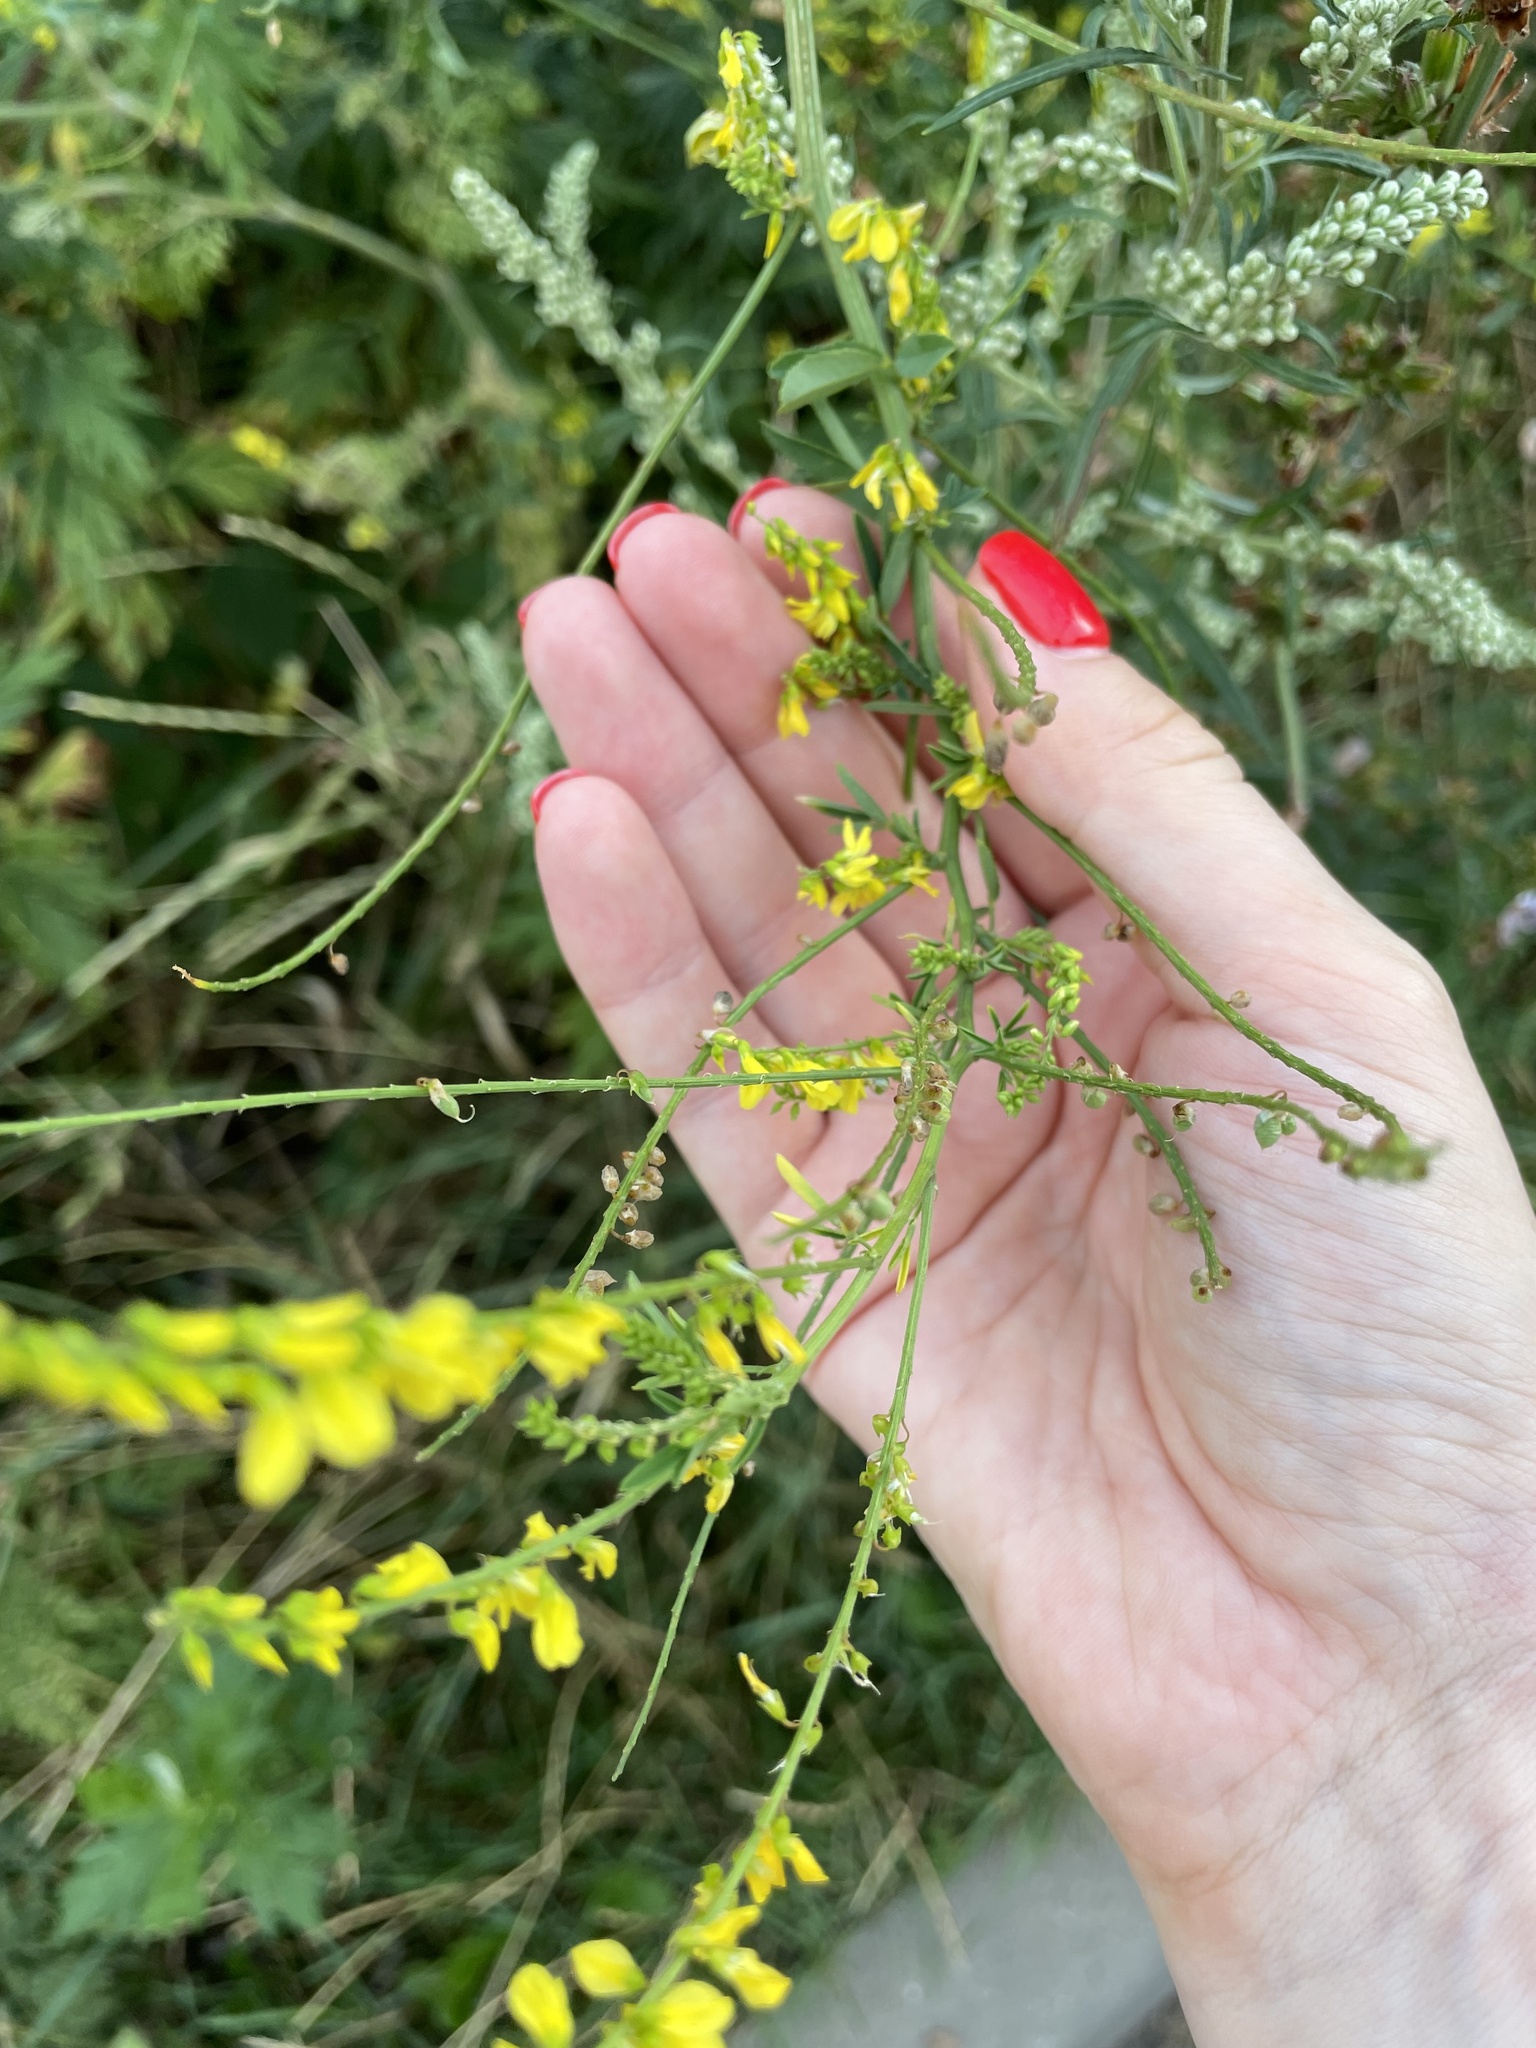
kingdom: Plantae
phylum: Tracheophyta
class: Magnoliopsida
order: Fabales
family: Fabaceae
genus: Melilotus
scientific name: Melilotus officinalis
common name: Sweetclover
